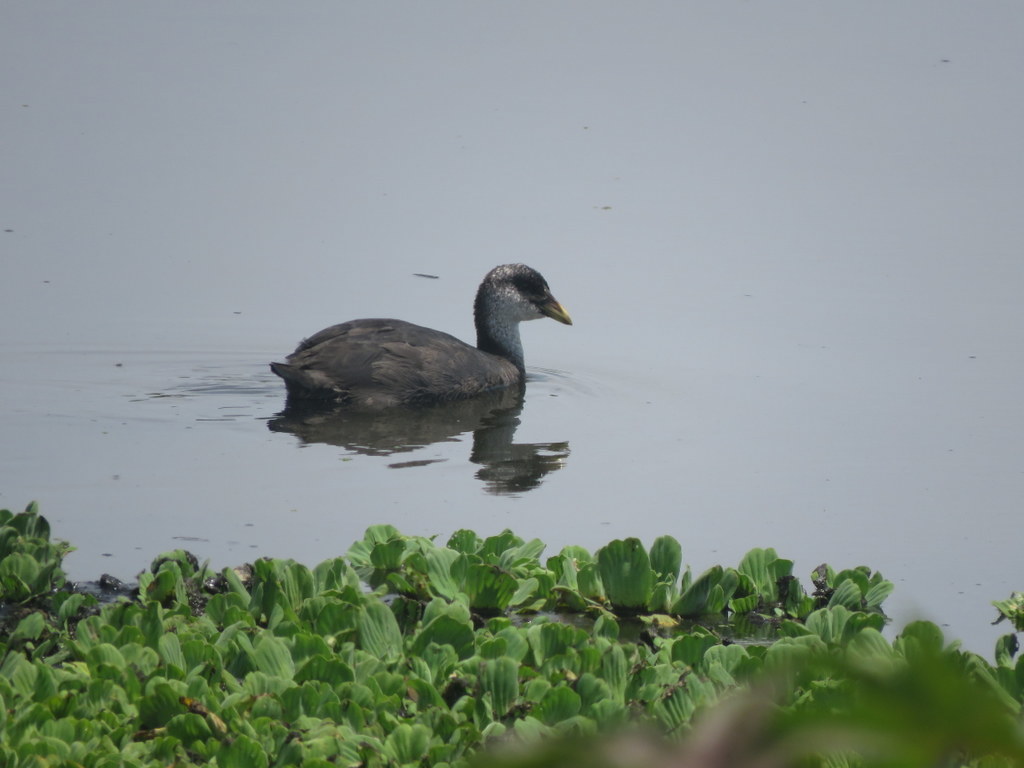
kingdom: Animalia
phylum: Chordata
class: Aves
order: Gruiformes
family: Rallidae
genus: Fulica
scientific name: Fulica armillata
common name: Red-gartered coot
